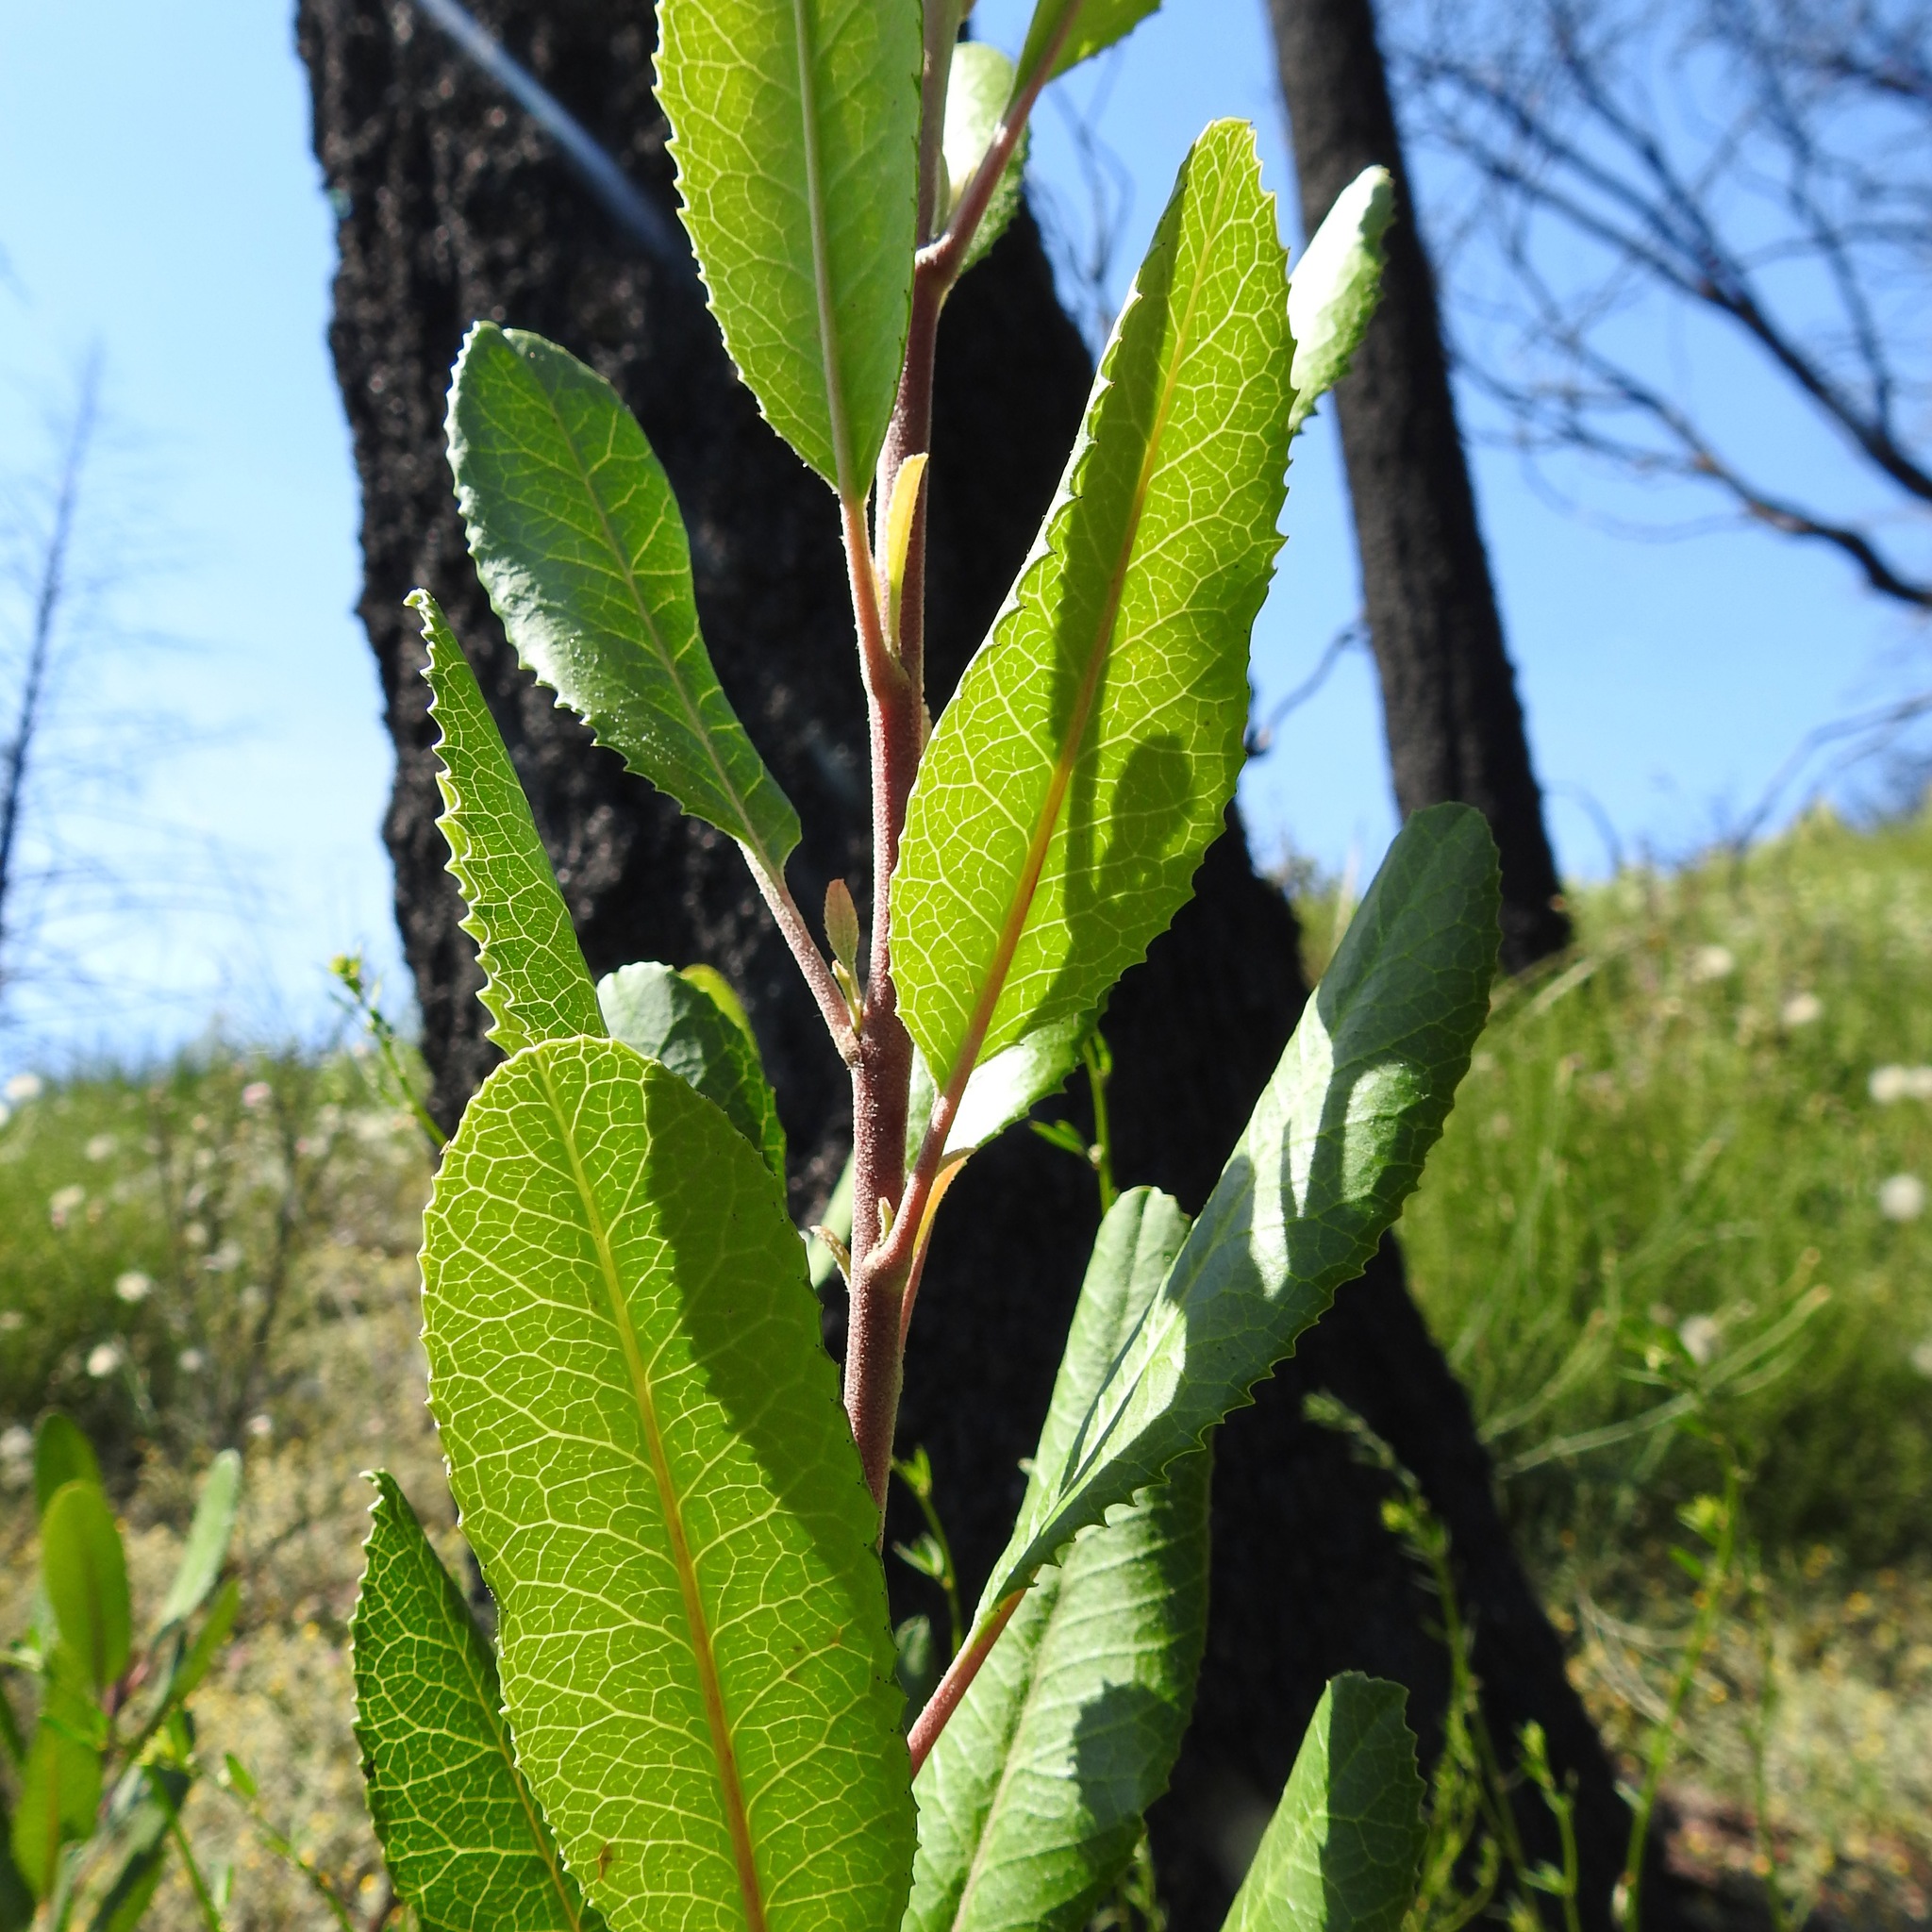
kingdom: Plantae
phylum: Tracheophyta
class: Magnoliopsida
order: Rosales
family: Rosaceae
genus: Heteromeles
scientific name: Heteromeles arbutifolia
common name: California-holly
